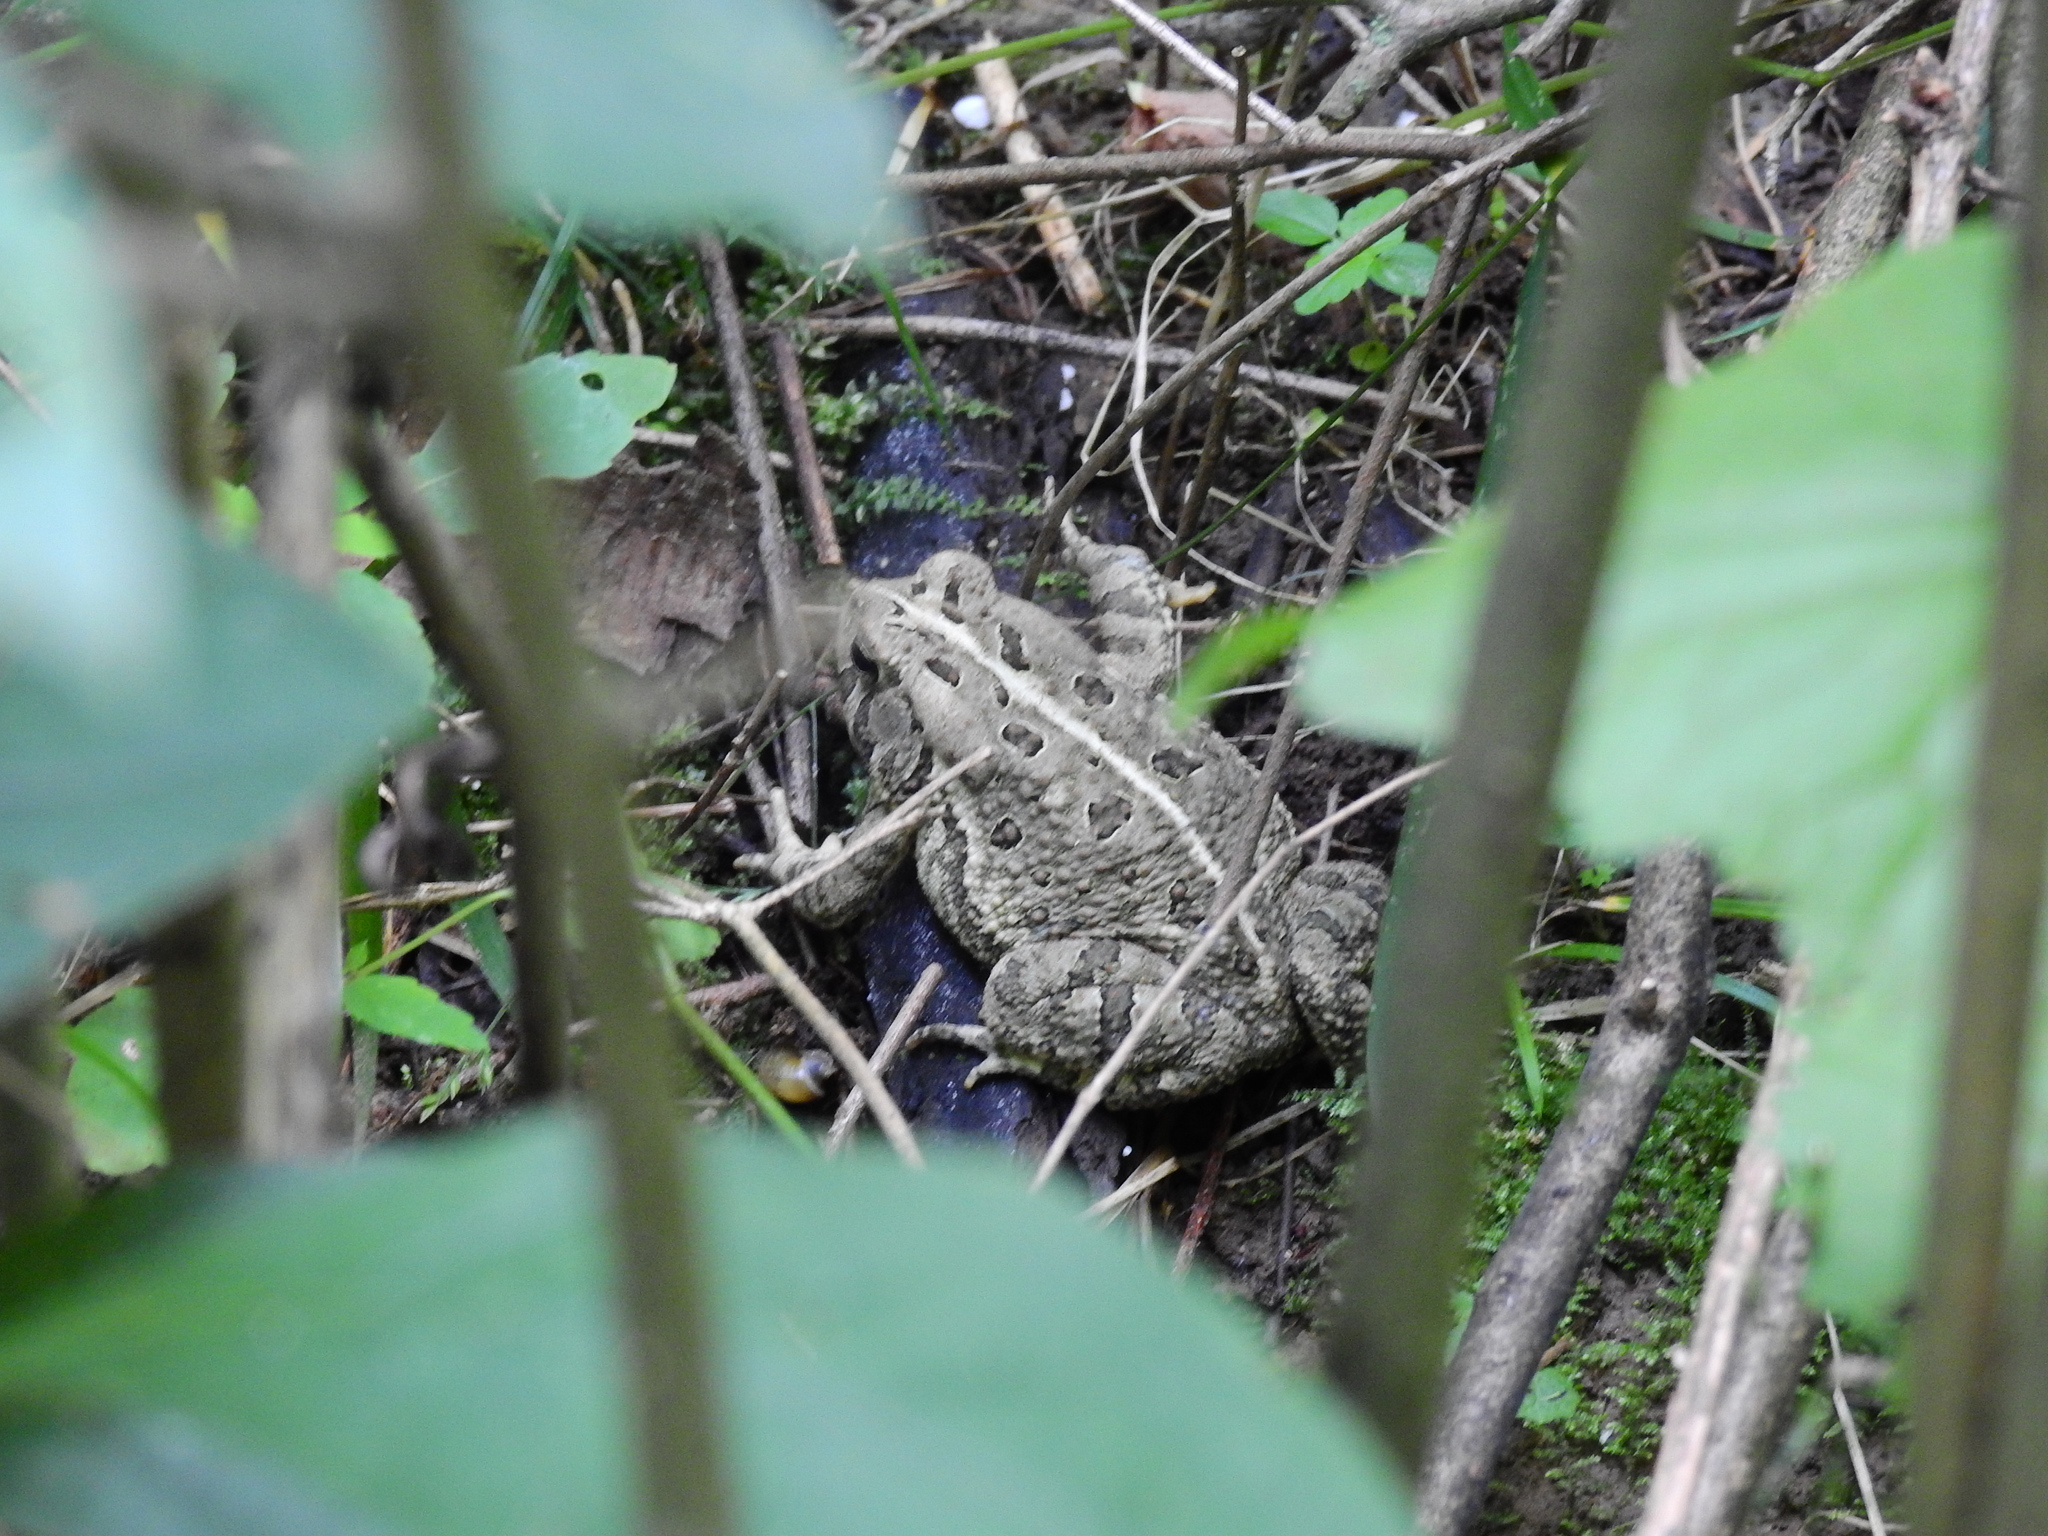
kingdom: Animalia
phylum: Chordata
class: Amphibia
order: Anura
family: Bufonidae
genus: Anaxyrus
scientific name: Anaxyrus fowleri
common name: Fowler's toad
